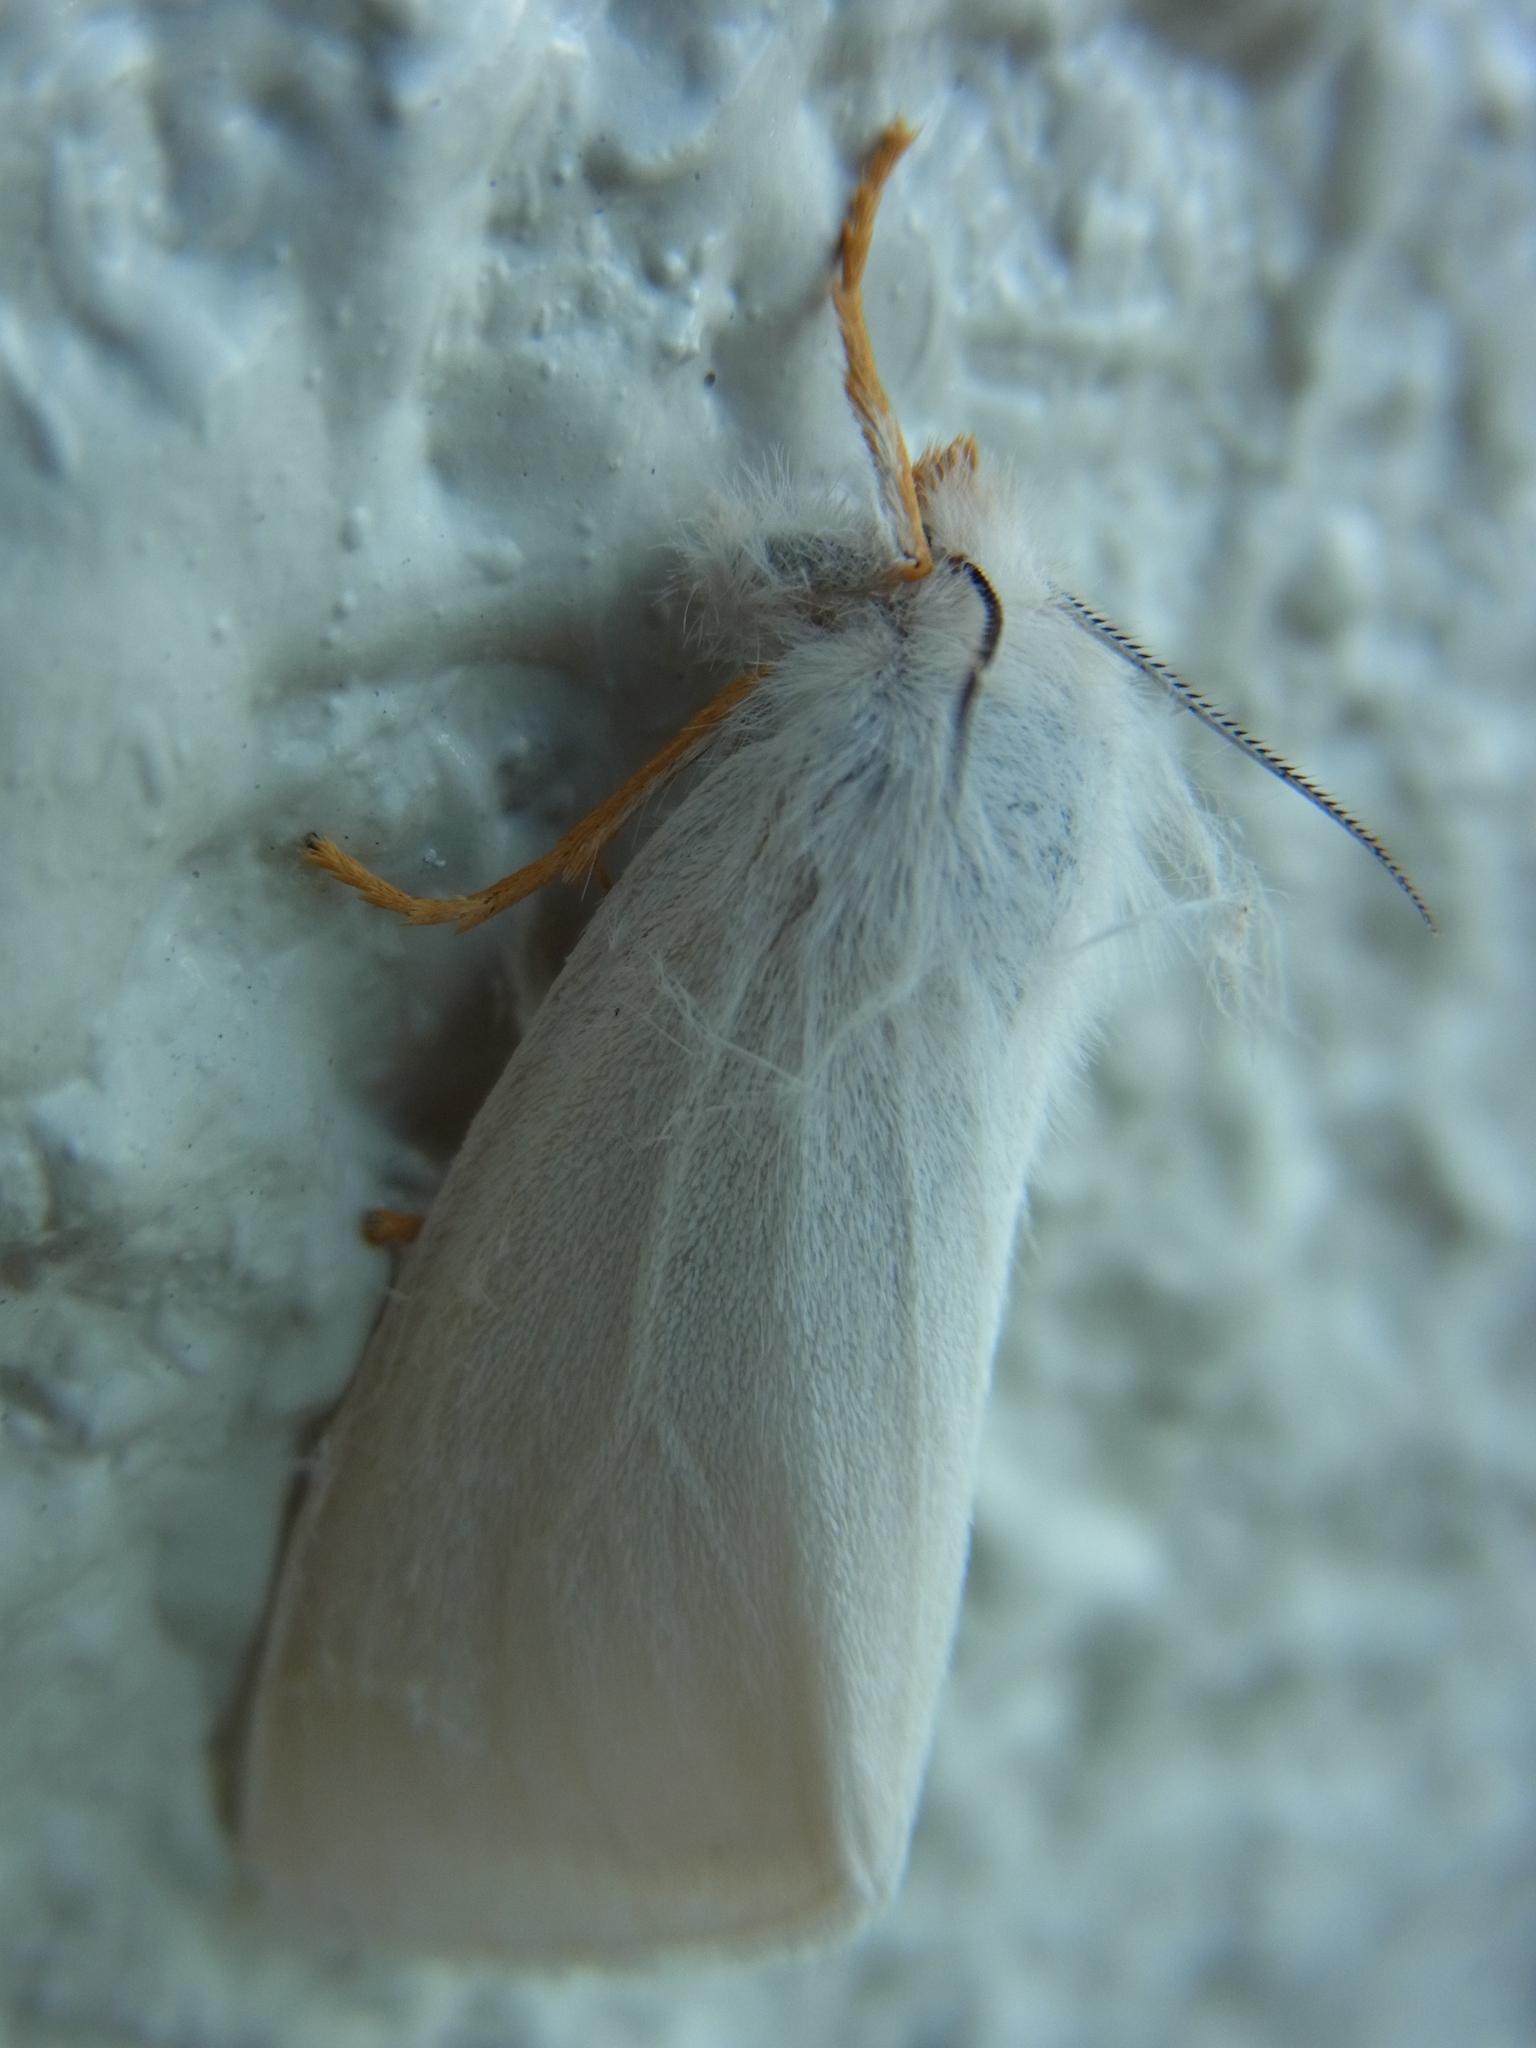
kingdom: Animalia
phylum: Arthropoda
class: Insecta
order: Lepidoptera
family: Erebidae
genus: Ivela
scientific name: Ivela auripes
